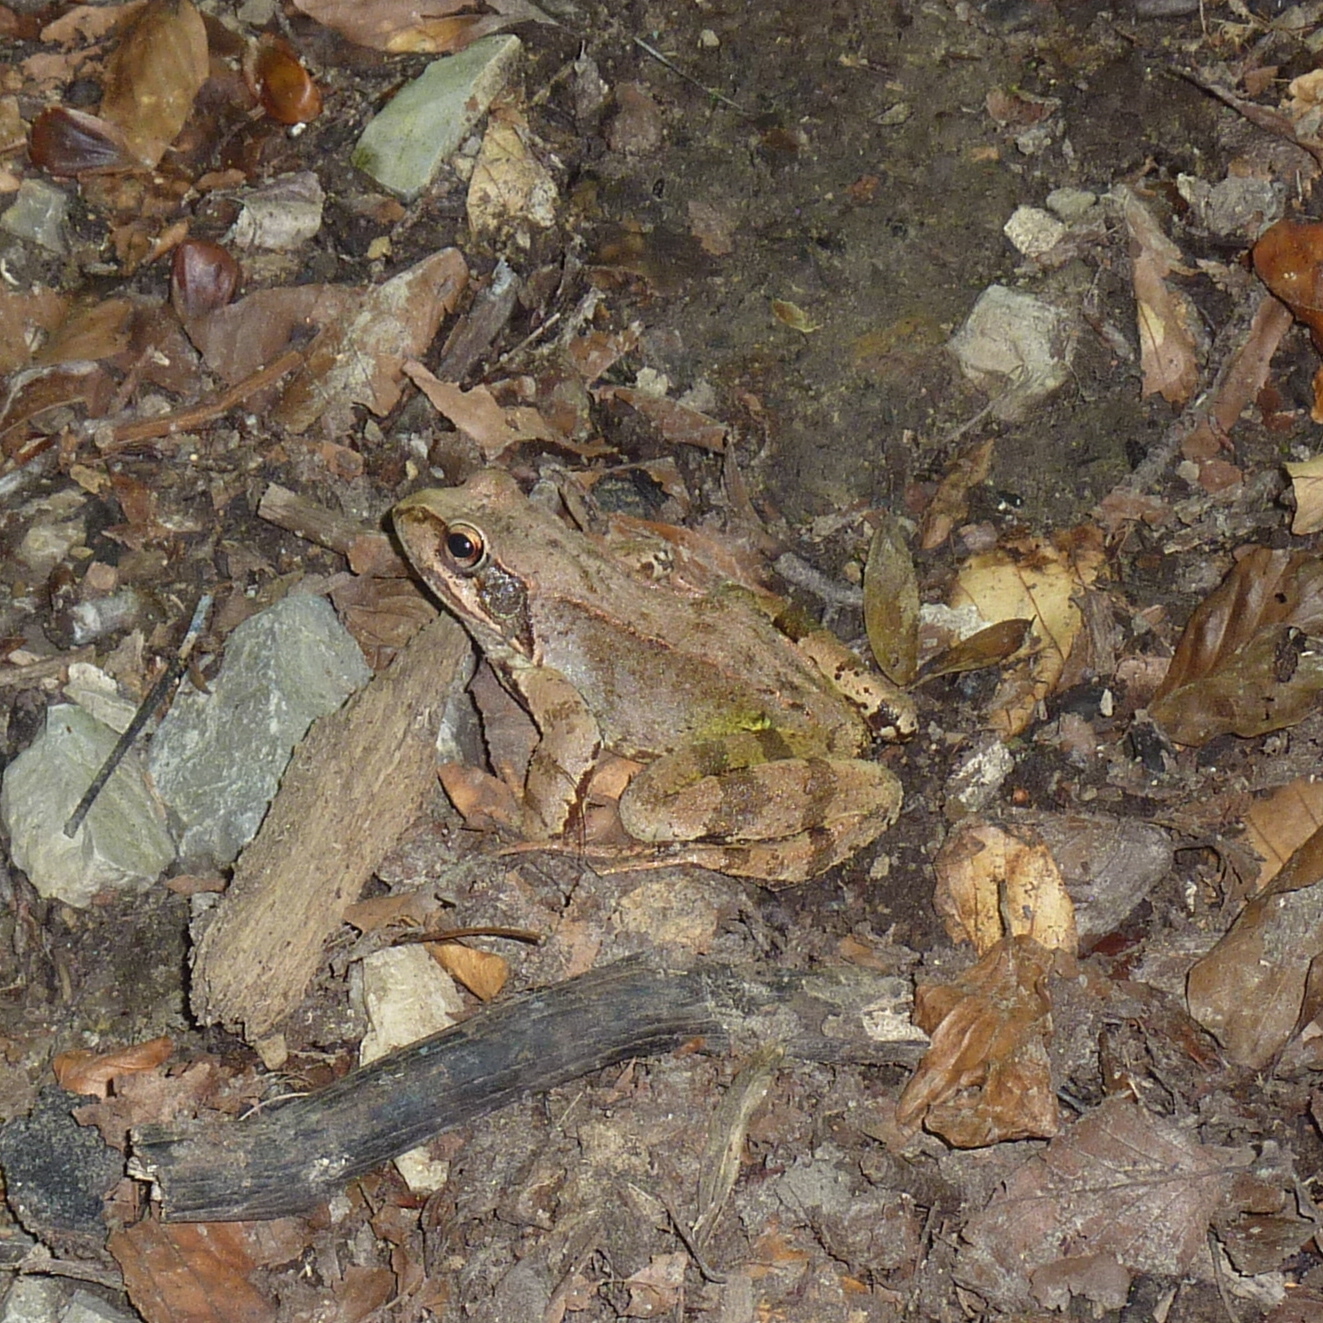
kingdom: Animalia
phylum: Chordata
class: Amphibia
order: Anura
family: Ranidae
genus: Rana
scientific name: Rana temporaria
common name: Common frog
